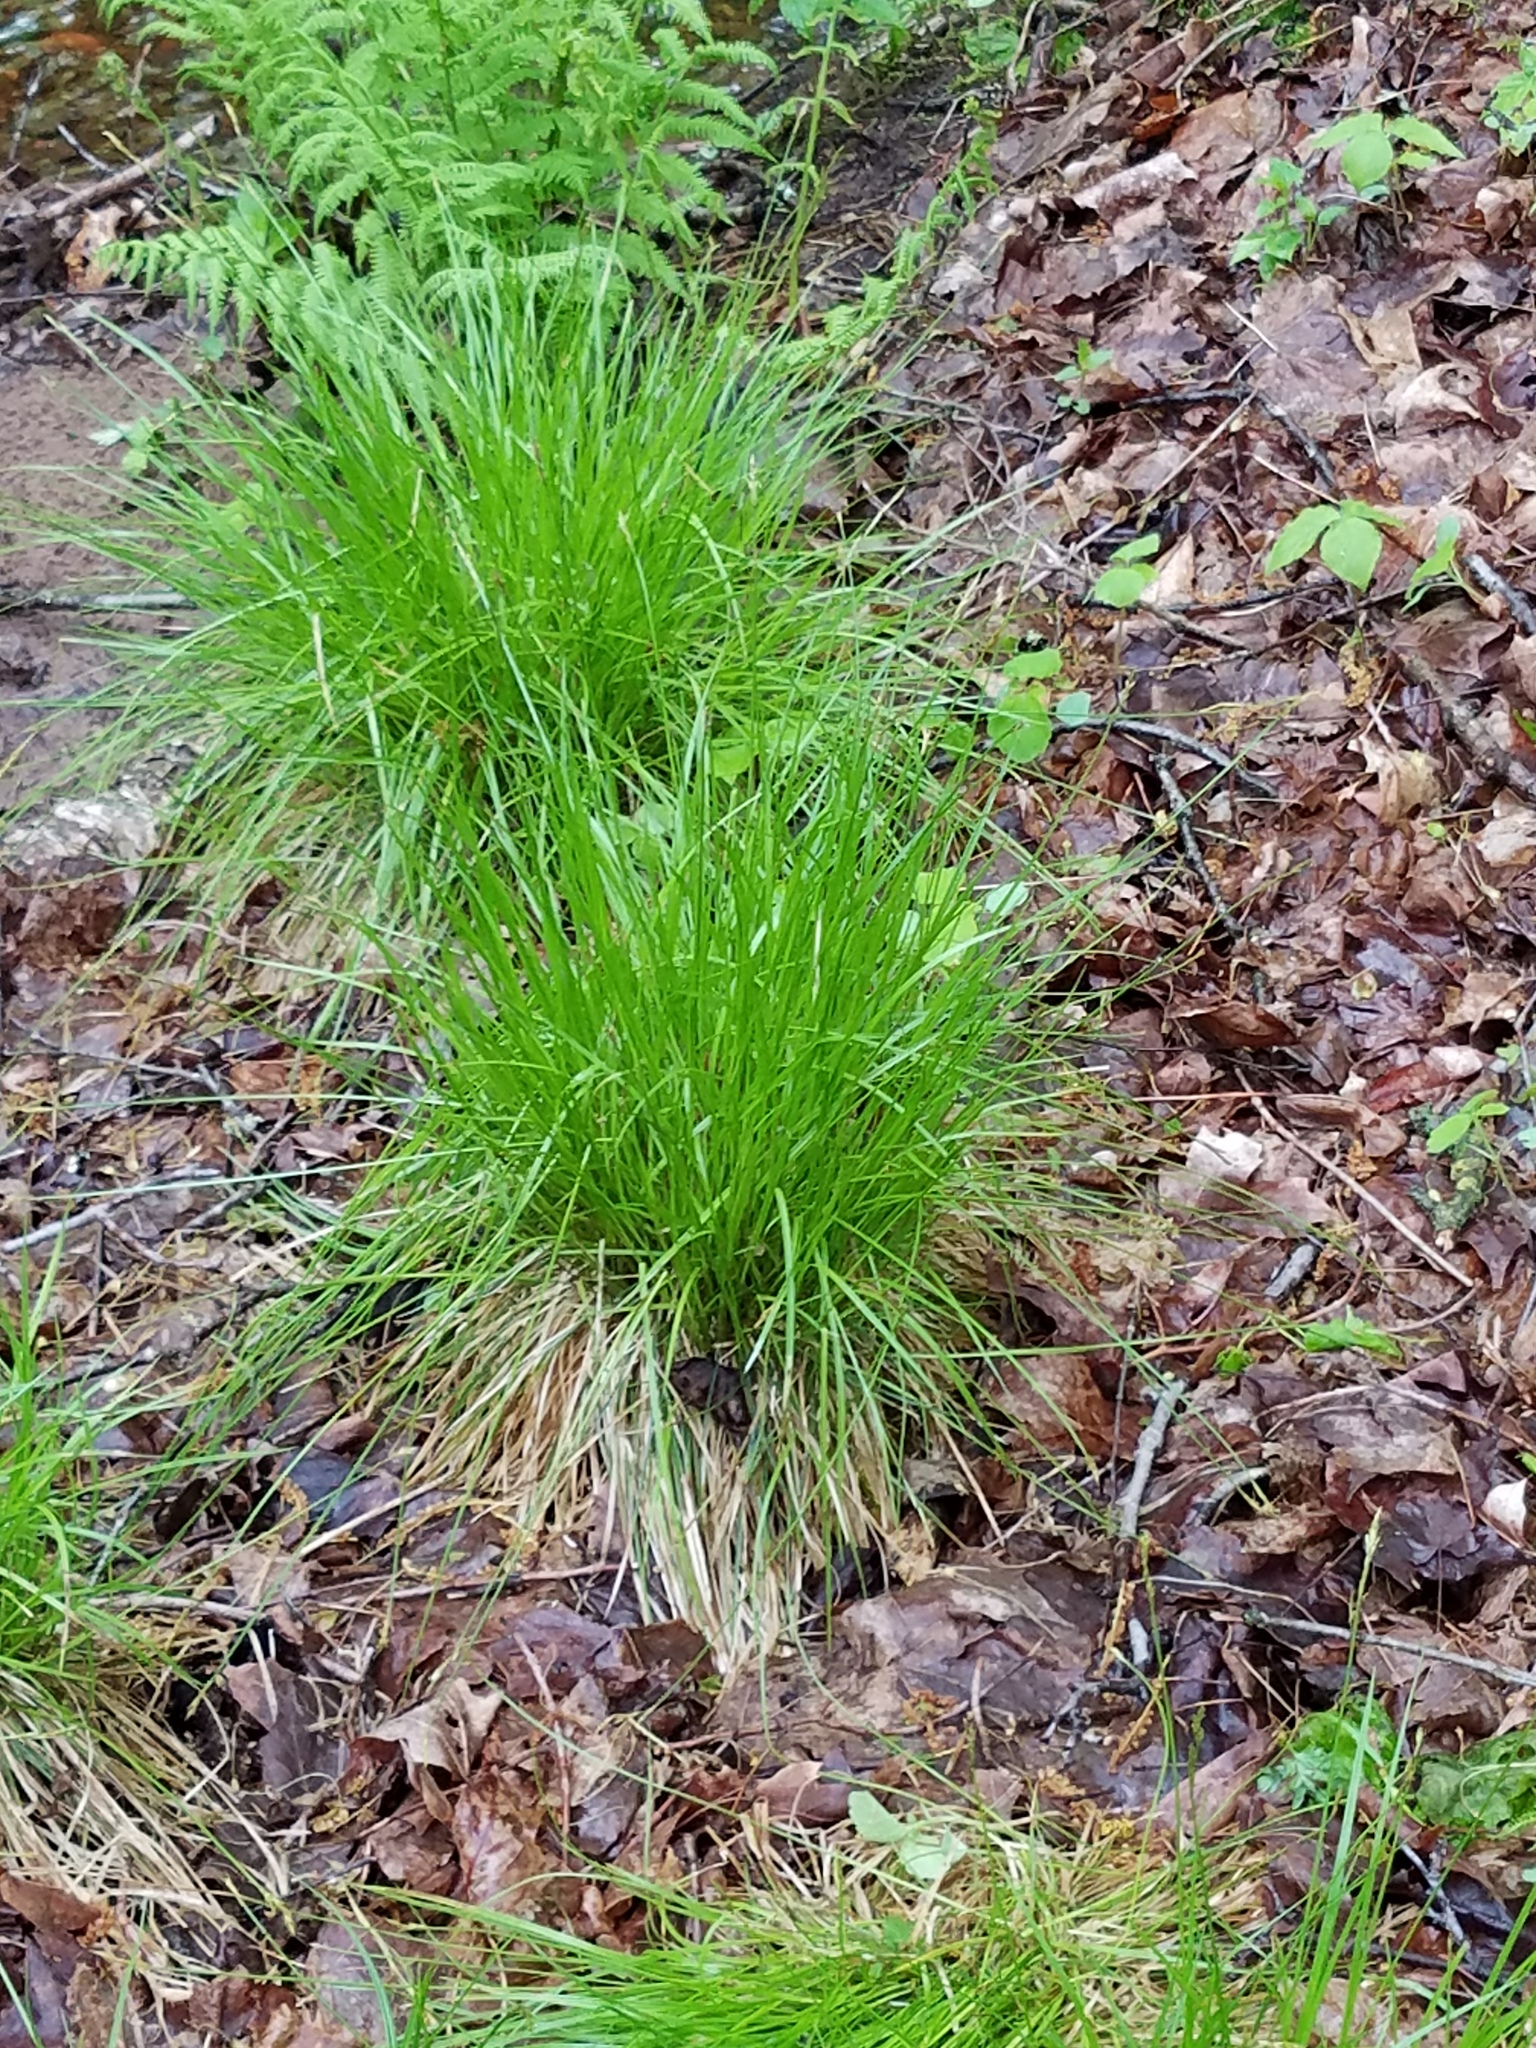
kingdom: Plantae
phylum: Tracheophyta
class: Liliopsida
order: Poales
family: Cyperaceae
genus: Carex
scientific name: Carex bromoides
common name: Brome hummock sedge
